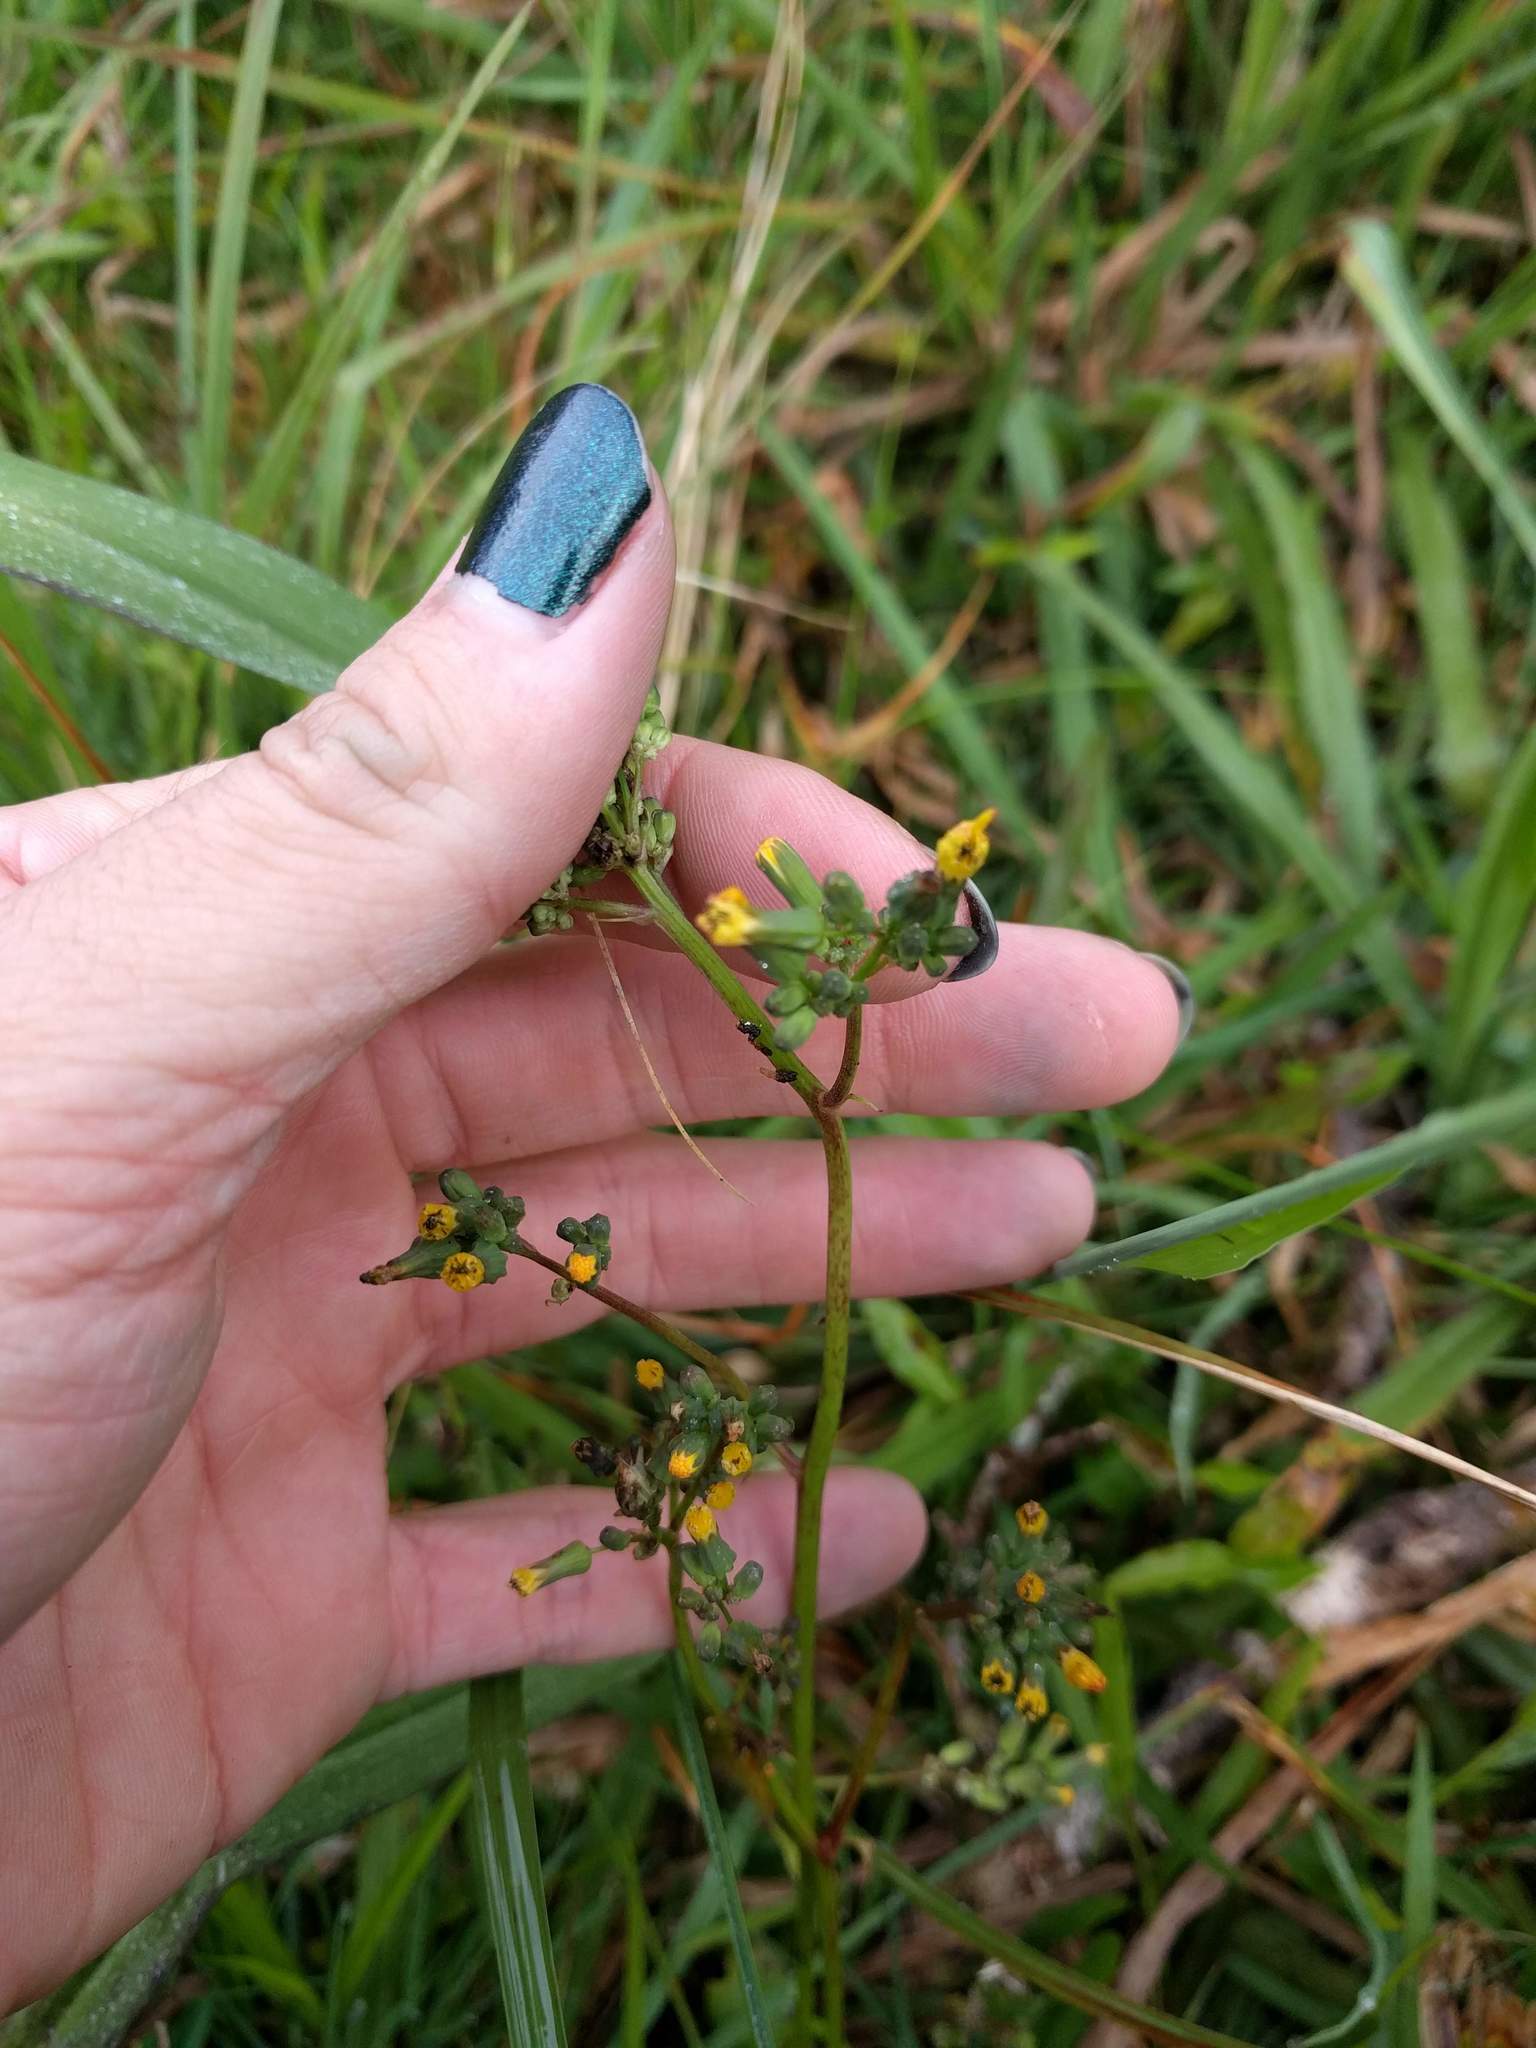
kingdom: Plantae
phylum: Tracheophyta
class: Magnoliopsida
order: Asterales
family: Asteraceae
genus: Youngia
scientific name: Youngia japonica
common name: Oriental false hawksbeard
